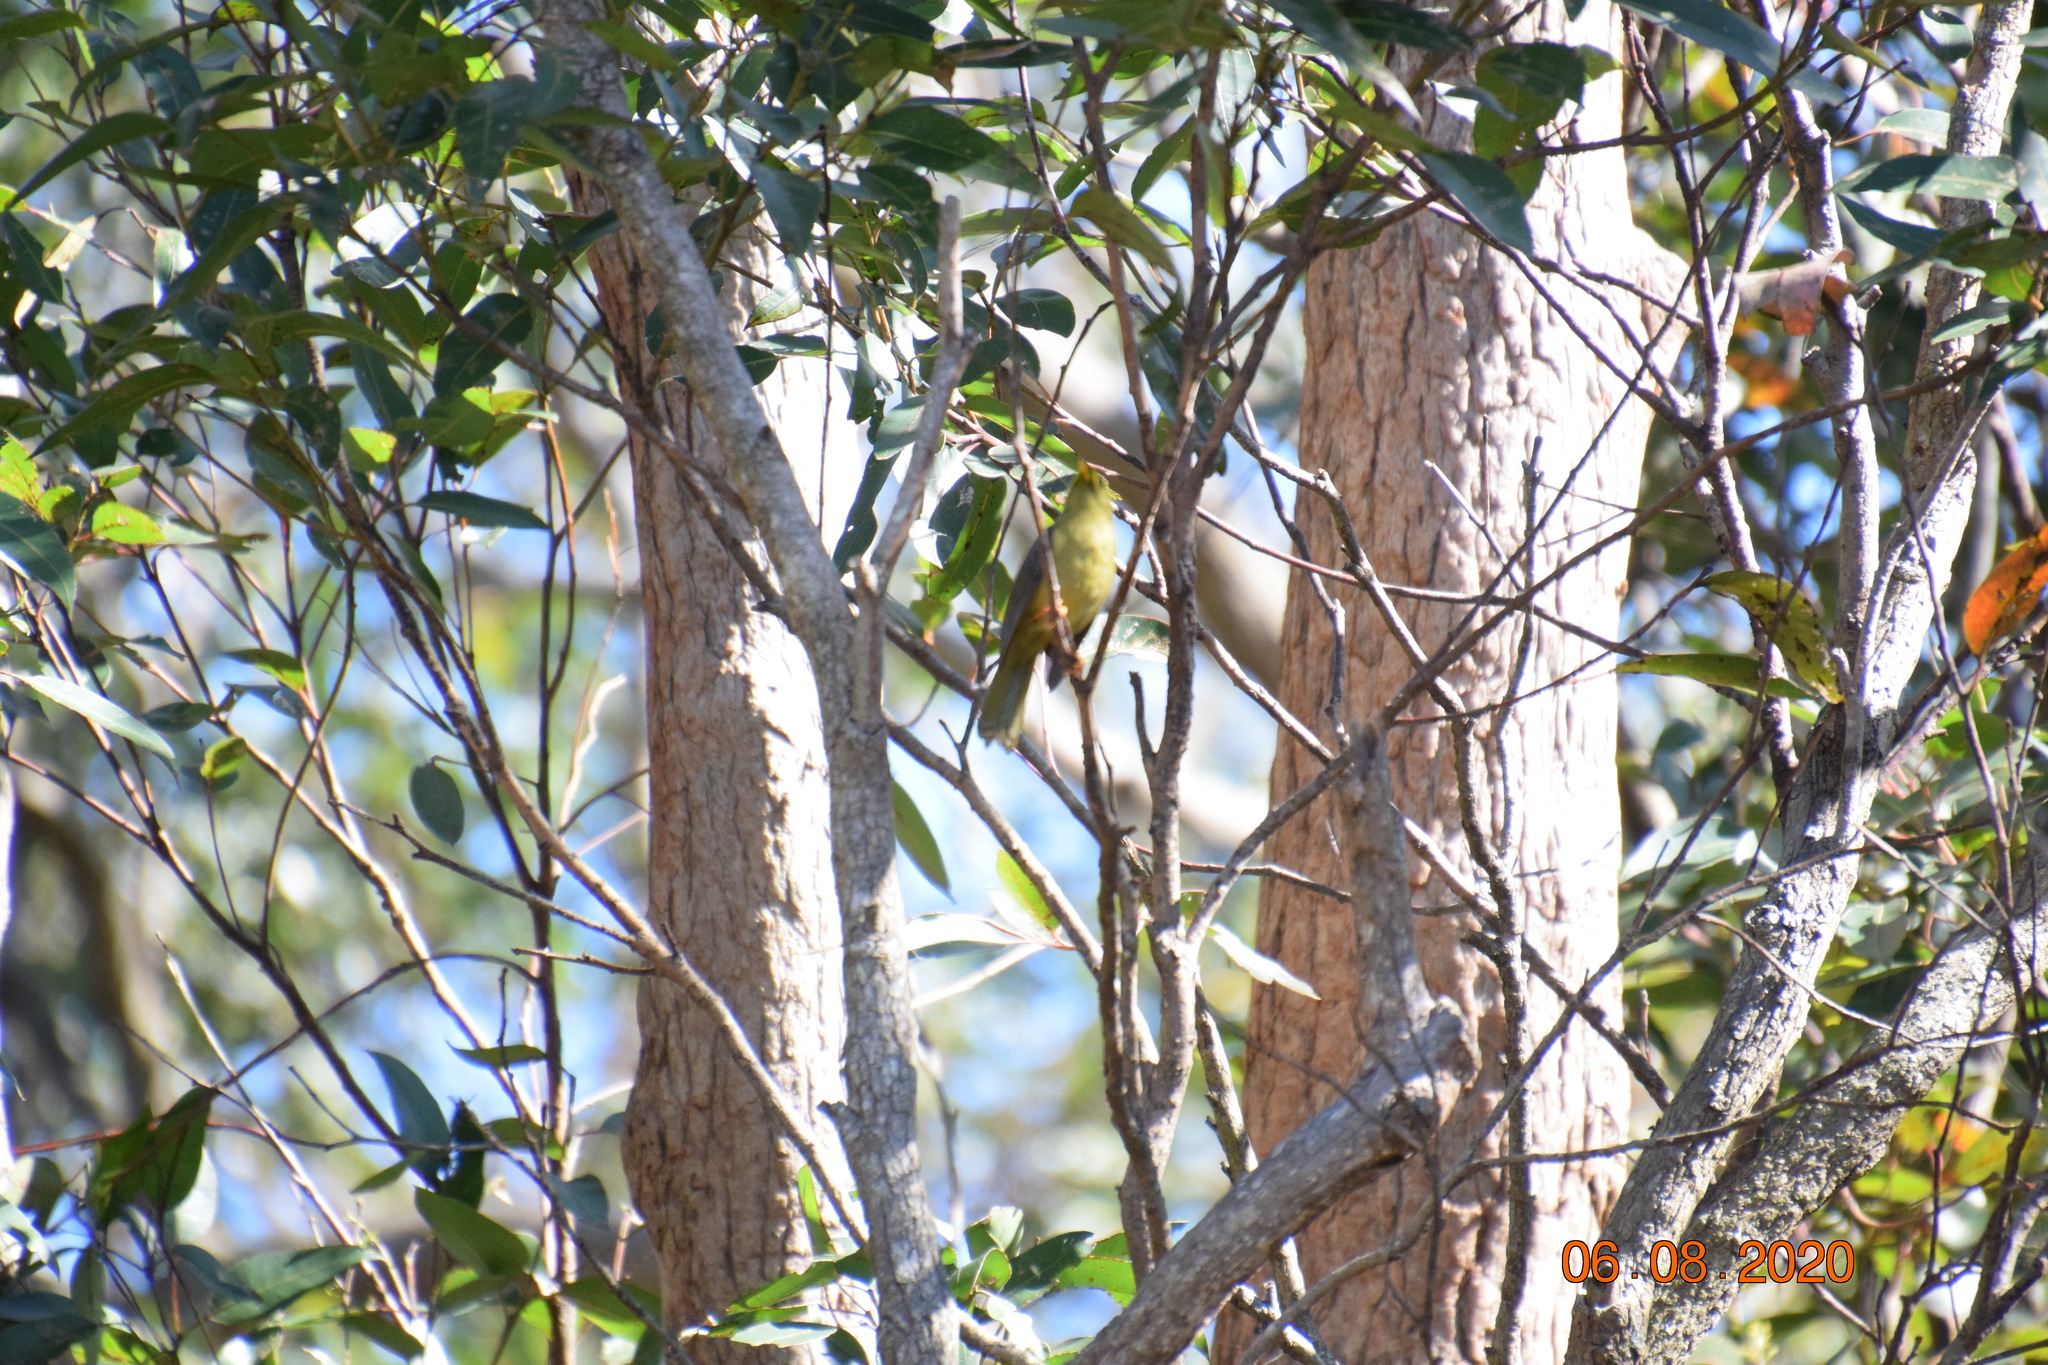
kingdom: Animalia
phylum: Chordata
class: Aves
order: Passeriformes
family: Meliphagidae
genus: Manorina
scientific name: Manorina melanophrys
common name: Bell miner
